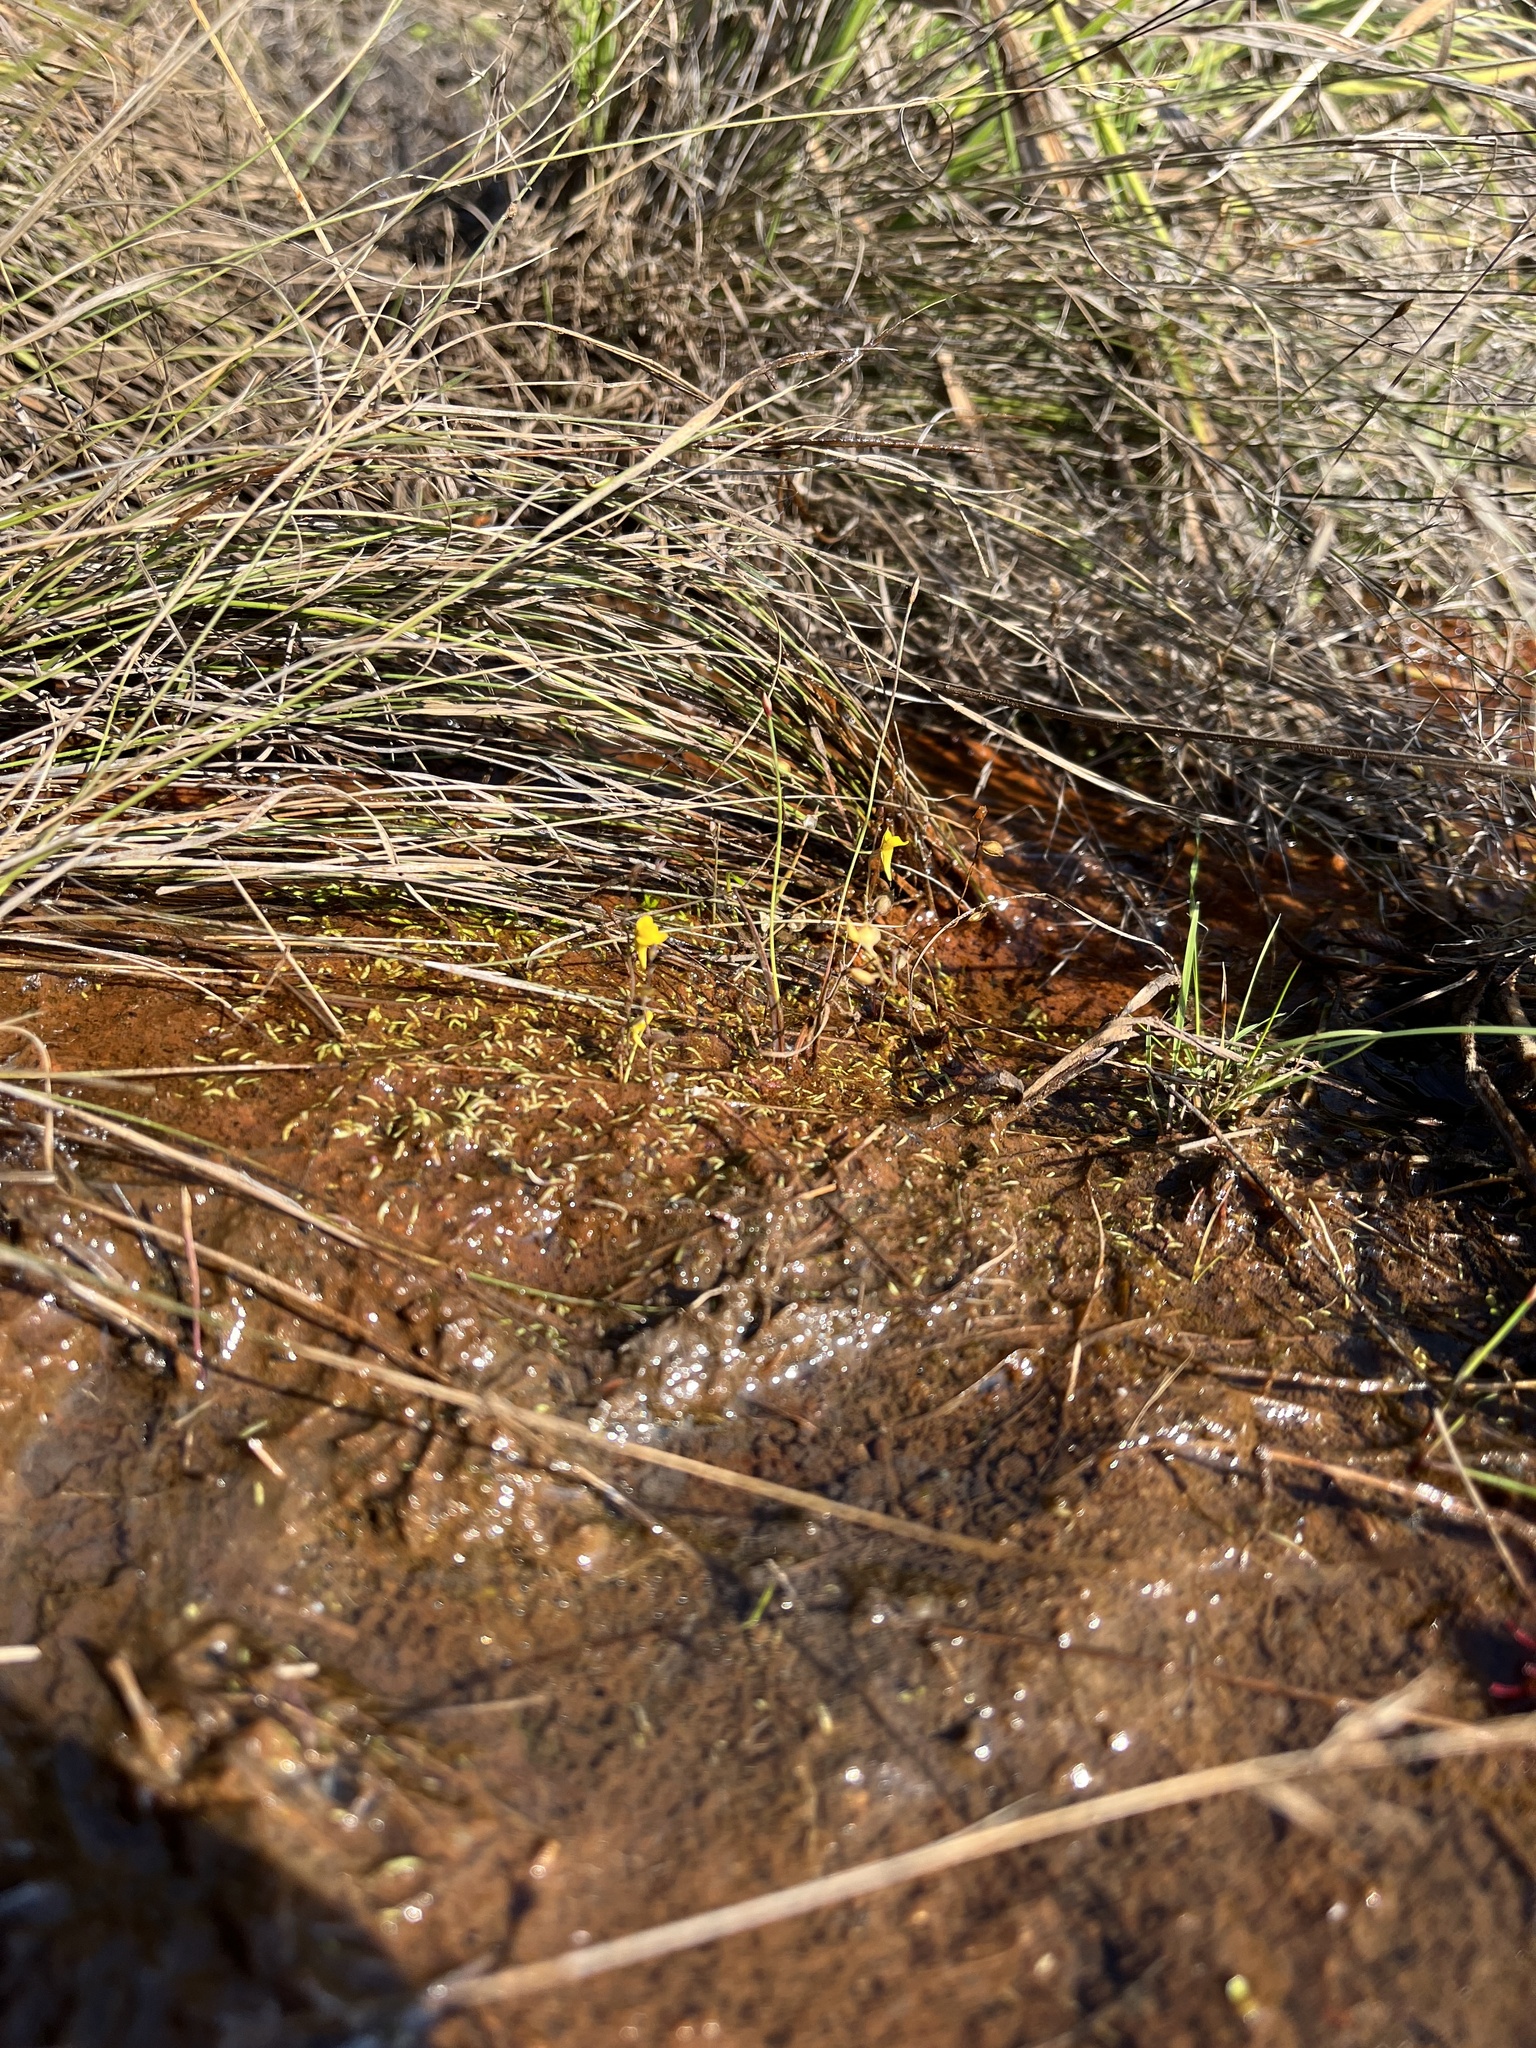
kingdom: Plantae
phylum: Tracheophyta
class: Magnoliopsida
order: Lamiales
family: Lentibulariaceae
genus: Utricularia
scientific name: Utricularia scandens
